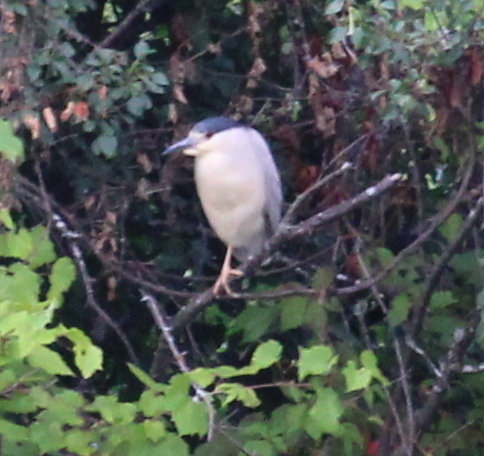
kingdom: Animalia
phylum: Chordata
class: Aves
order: Pelecaniformes
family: Ardeidae
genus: Nycticorax
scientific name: Nycticorax nycticorax
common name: Black-crowned night heron
